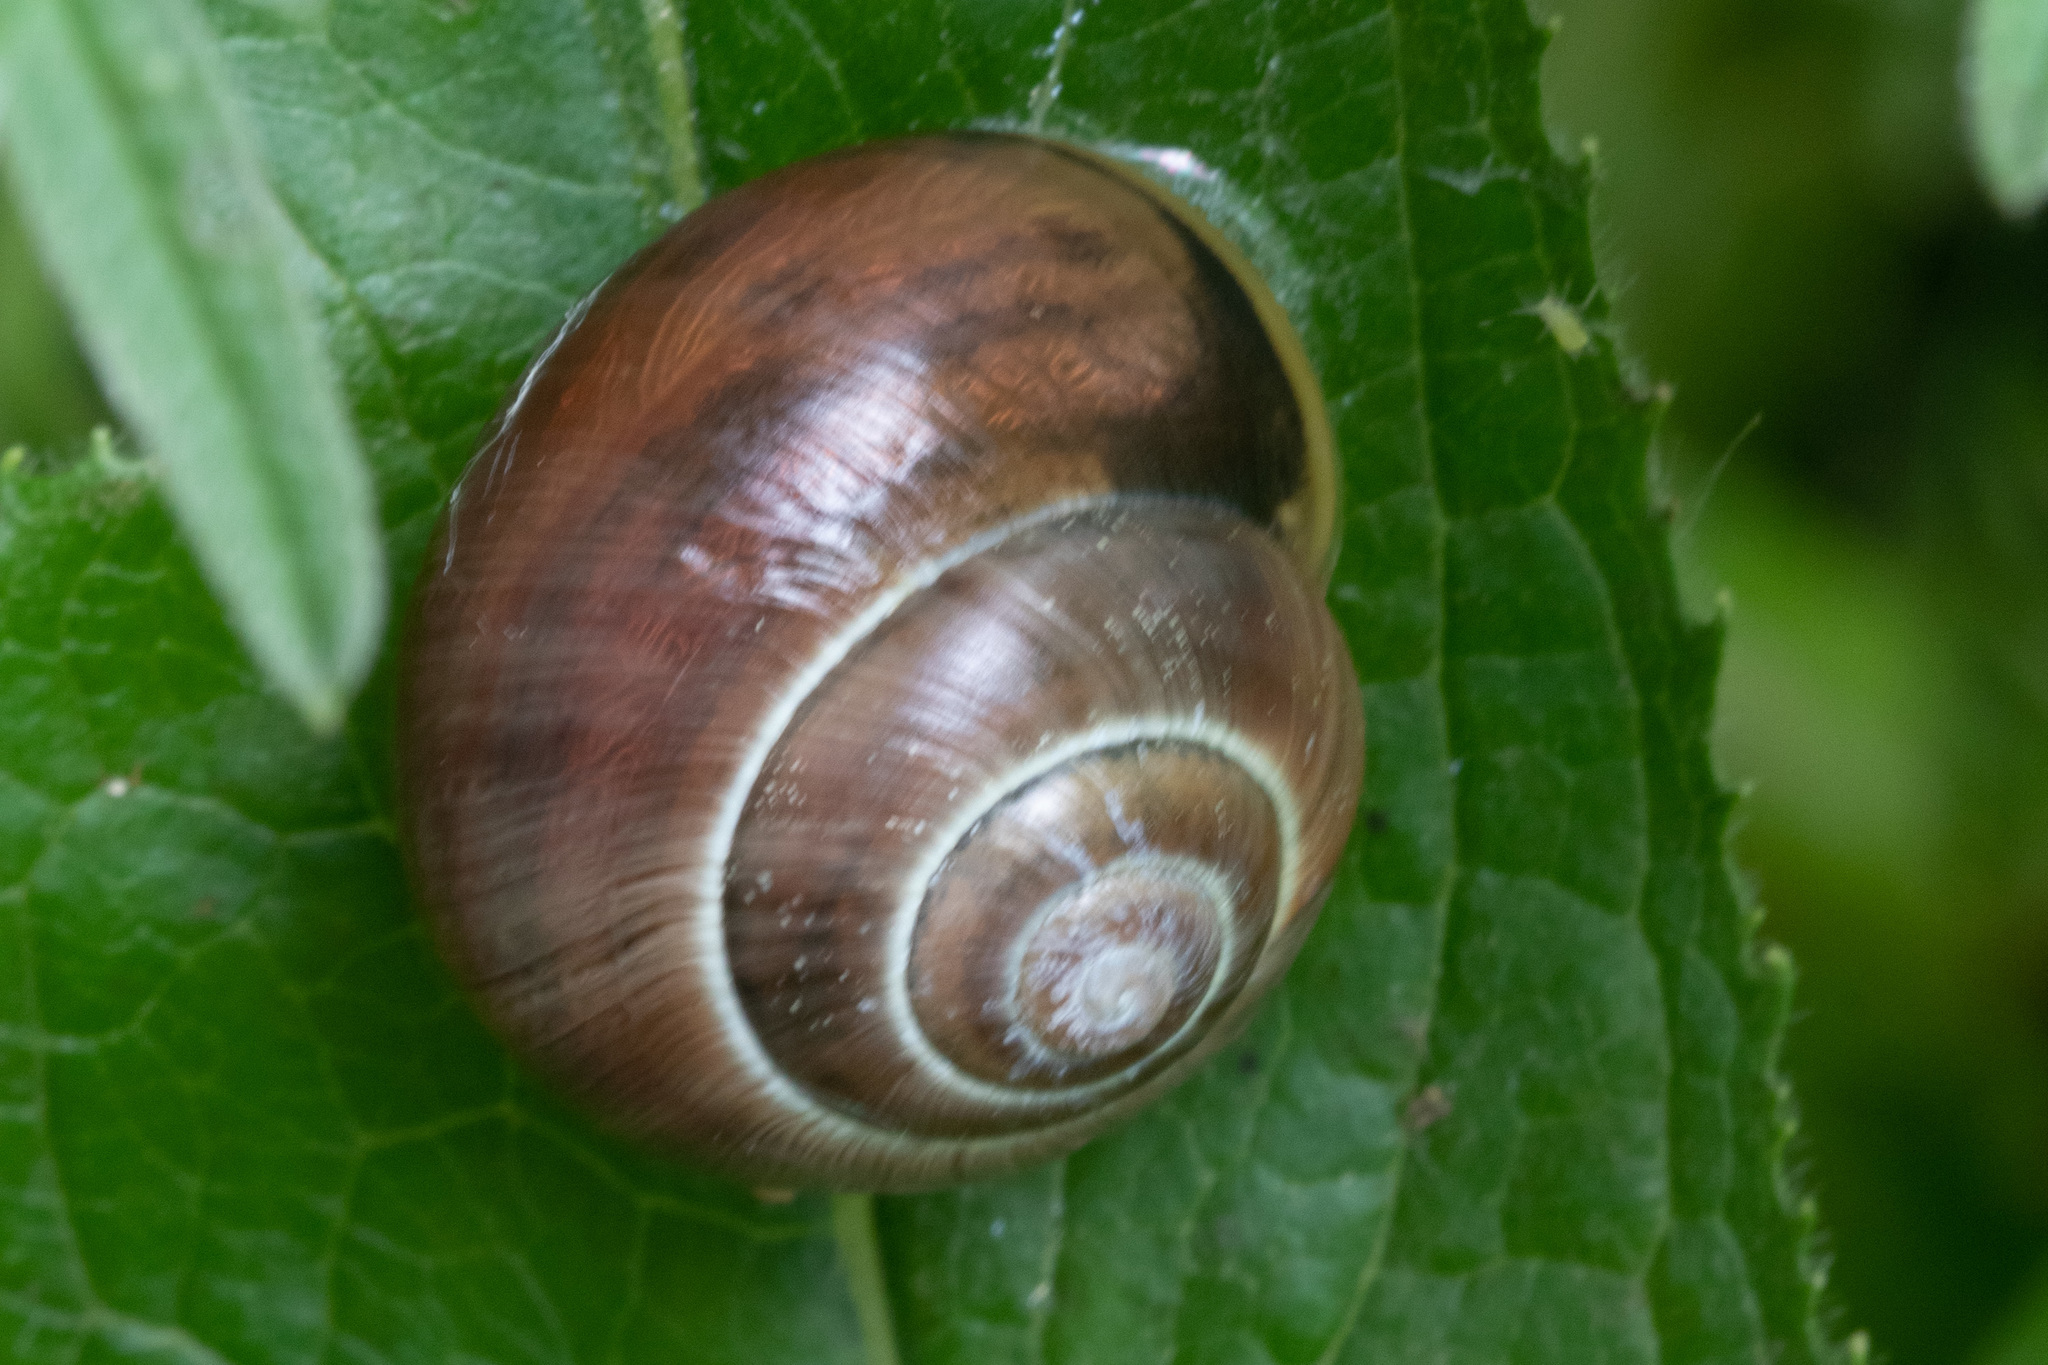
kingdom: Animalia
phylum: Mollusca
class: Gastropoda
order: Stylommatophora
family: Helicidae
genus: Cepaea
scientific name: Cepaea
